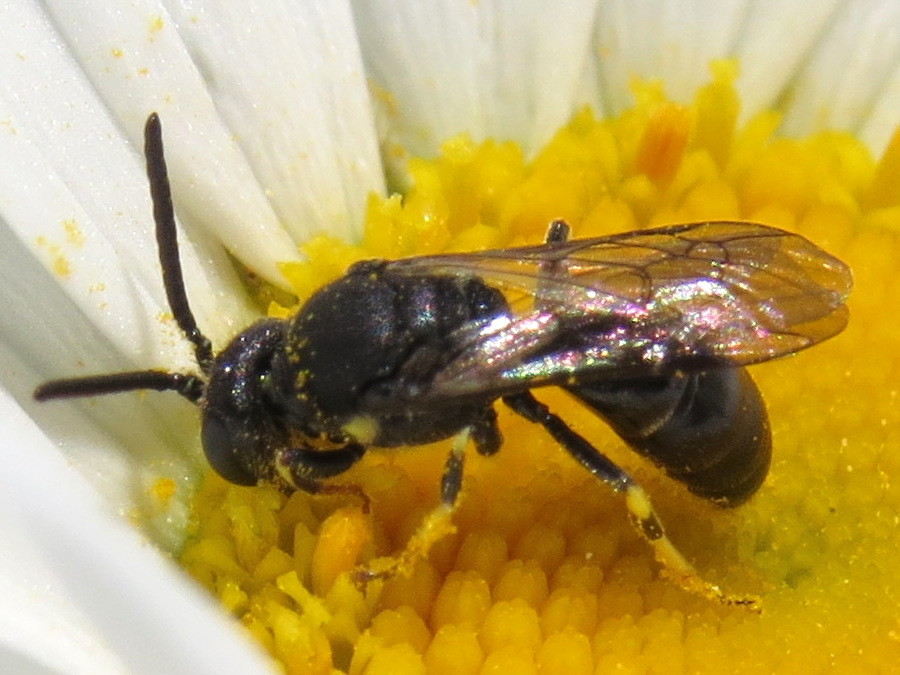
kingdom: Animalia
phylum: Arthropoda
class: Insecta
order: Hymenoptera
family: Colletidae
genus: Hylaeus
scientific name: Hylaeus modestus
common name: Yellow-faced bee
